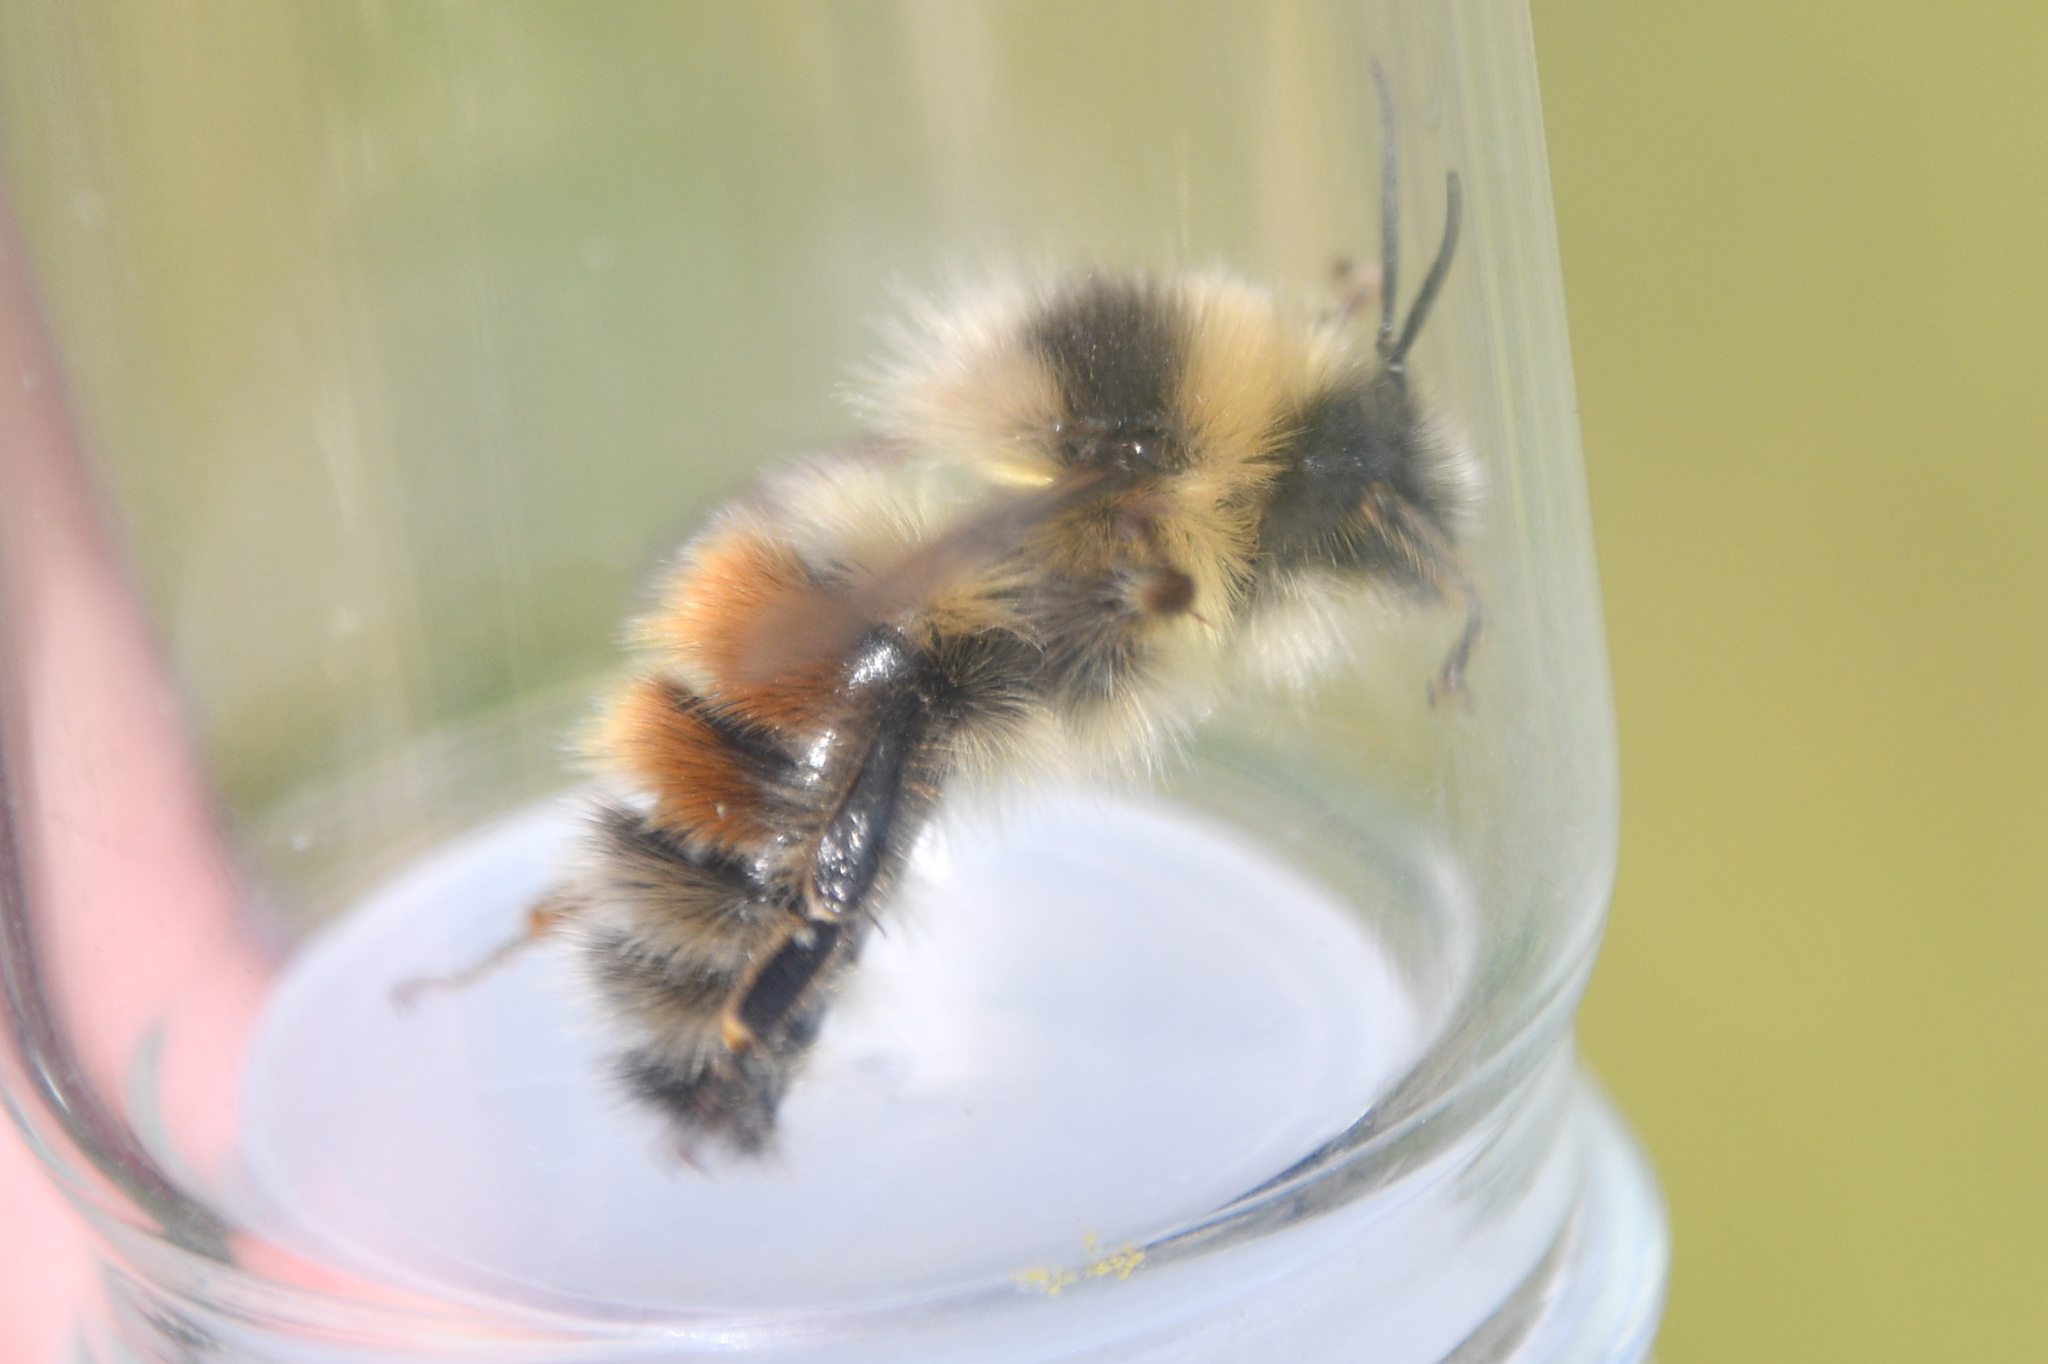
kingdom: Animalia
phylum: Arthropoda
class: Insecta
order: Hymenoptera
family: Apidae
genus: Bombus
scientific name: Bombus sylvicola
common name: Forest bumble bee
